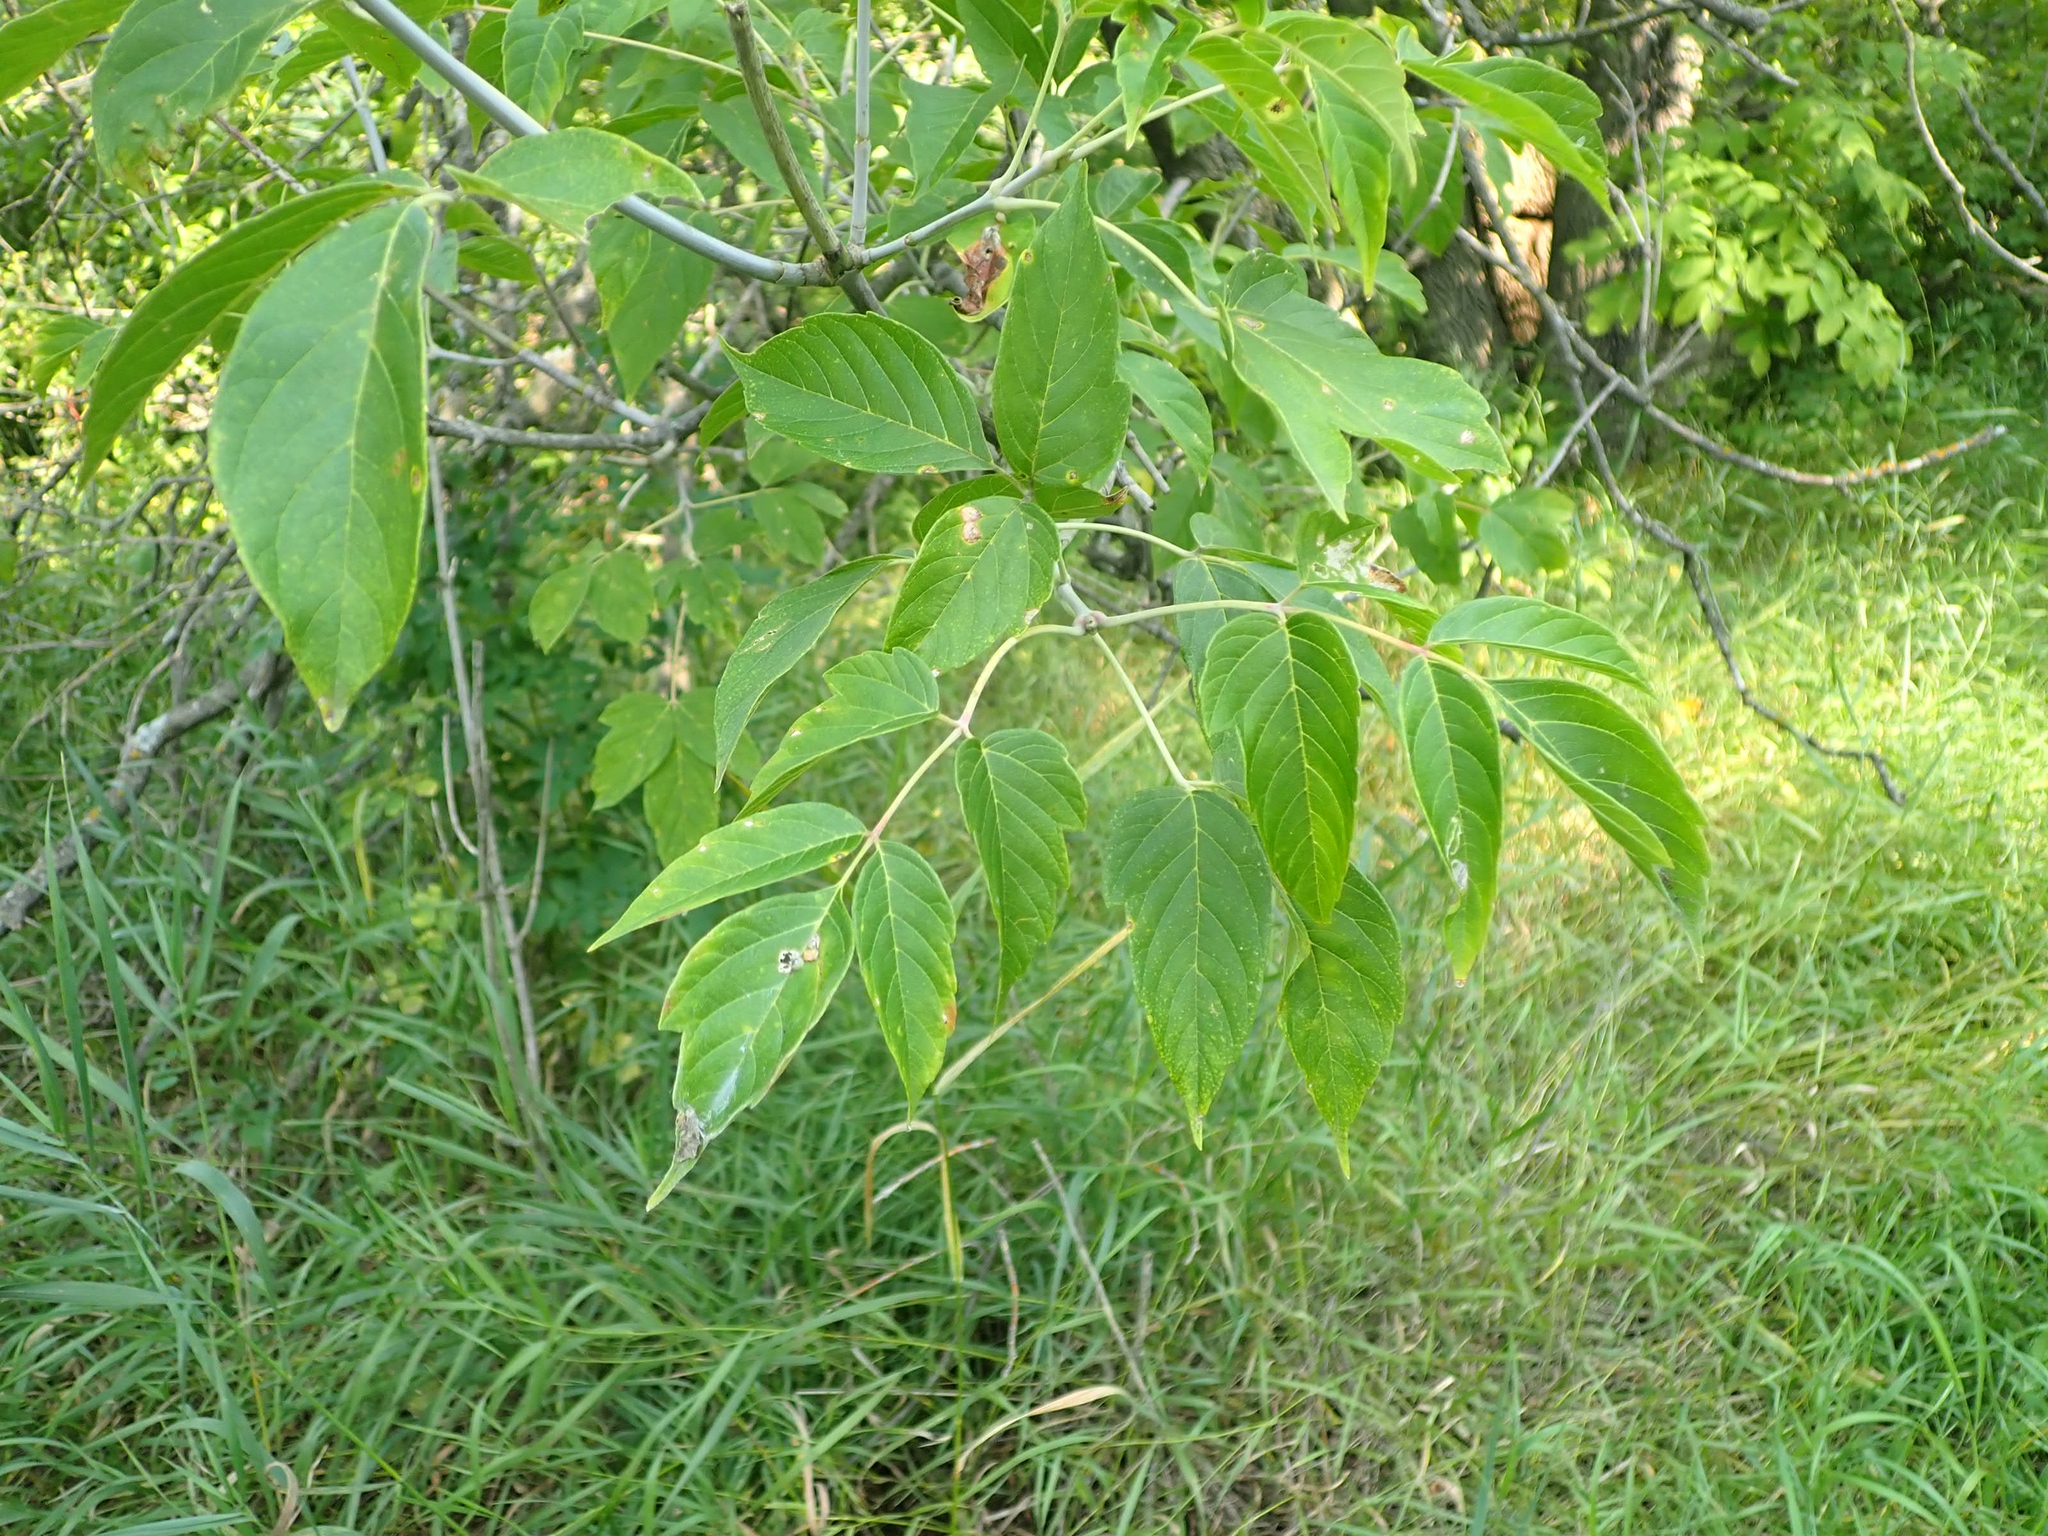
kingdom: Plantae
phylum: Tracheophyta
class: Magnoliopsida
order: Sapindales
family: Sapindaceae
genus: Acer
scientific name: Acer negundo
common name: Ashleaf maple
